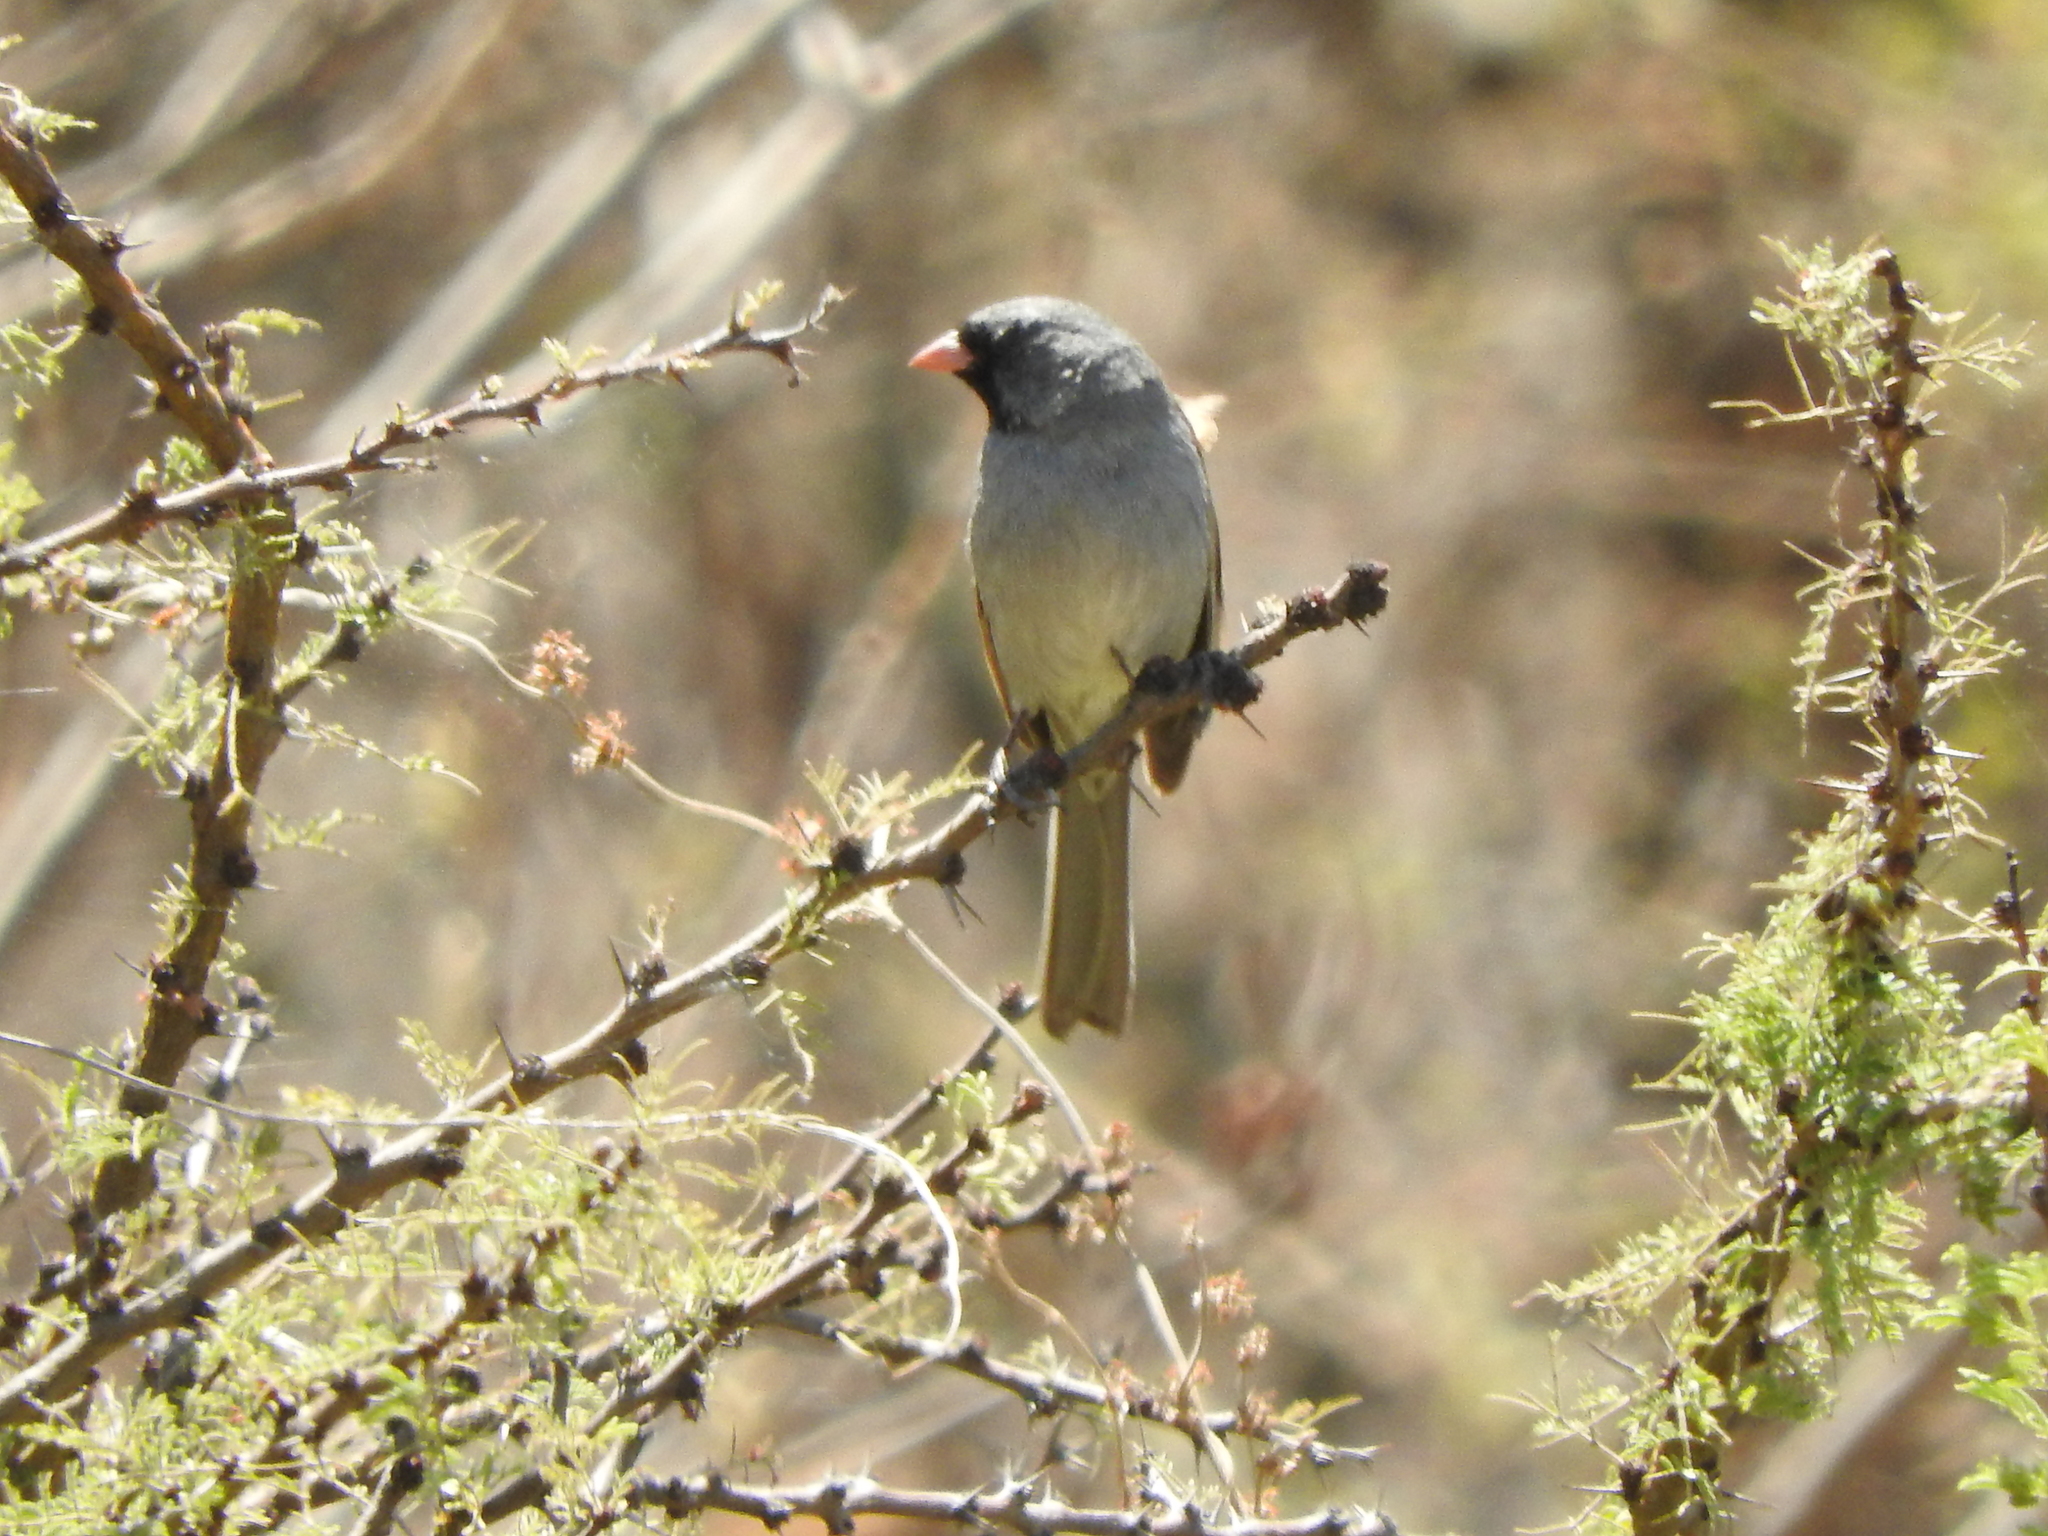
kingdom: Animalia
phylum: Chordata
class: Aves
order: Passeriformes
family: Passerellidae
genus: Spizella
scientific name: Spizella atrogularis
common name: Black-chinned sparrow
